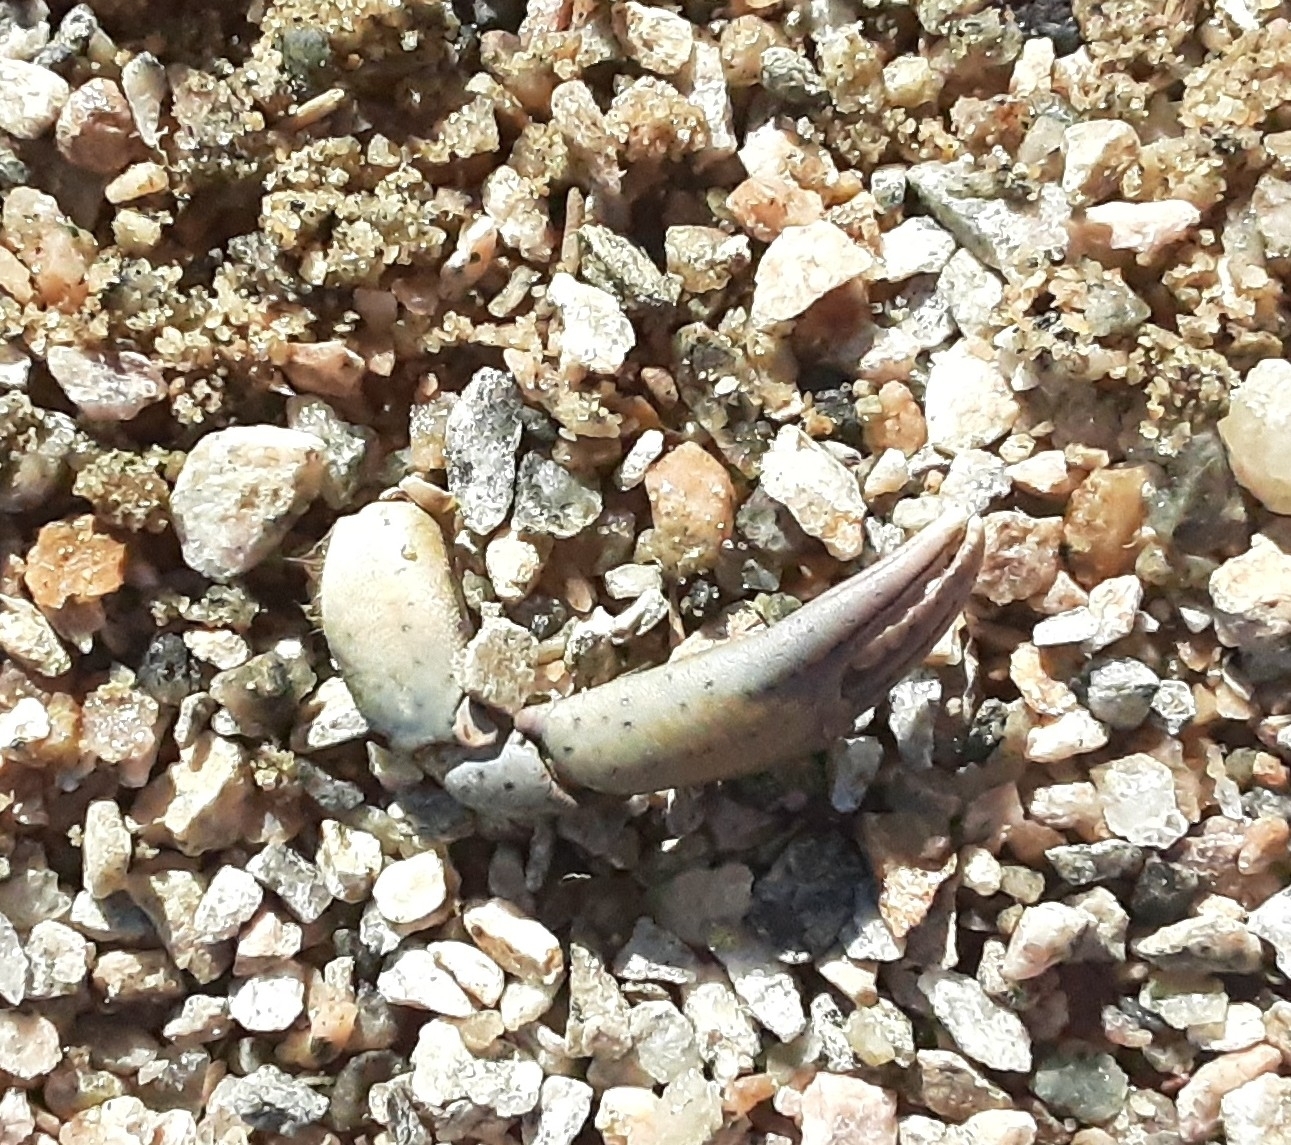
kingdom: Animalia
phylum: Arthropoda
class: Malacostraca
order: Decapoda
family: Carcinidae
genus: Carcinus
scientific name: Carcinus maenas
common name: European green crab
